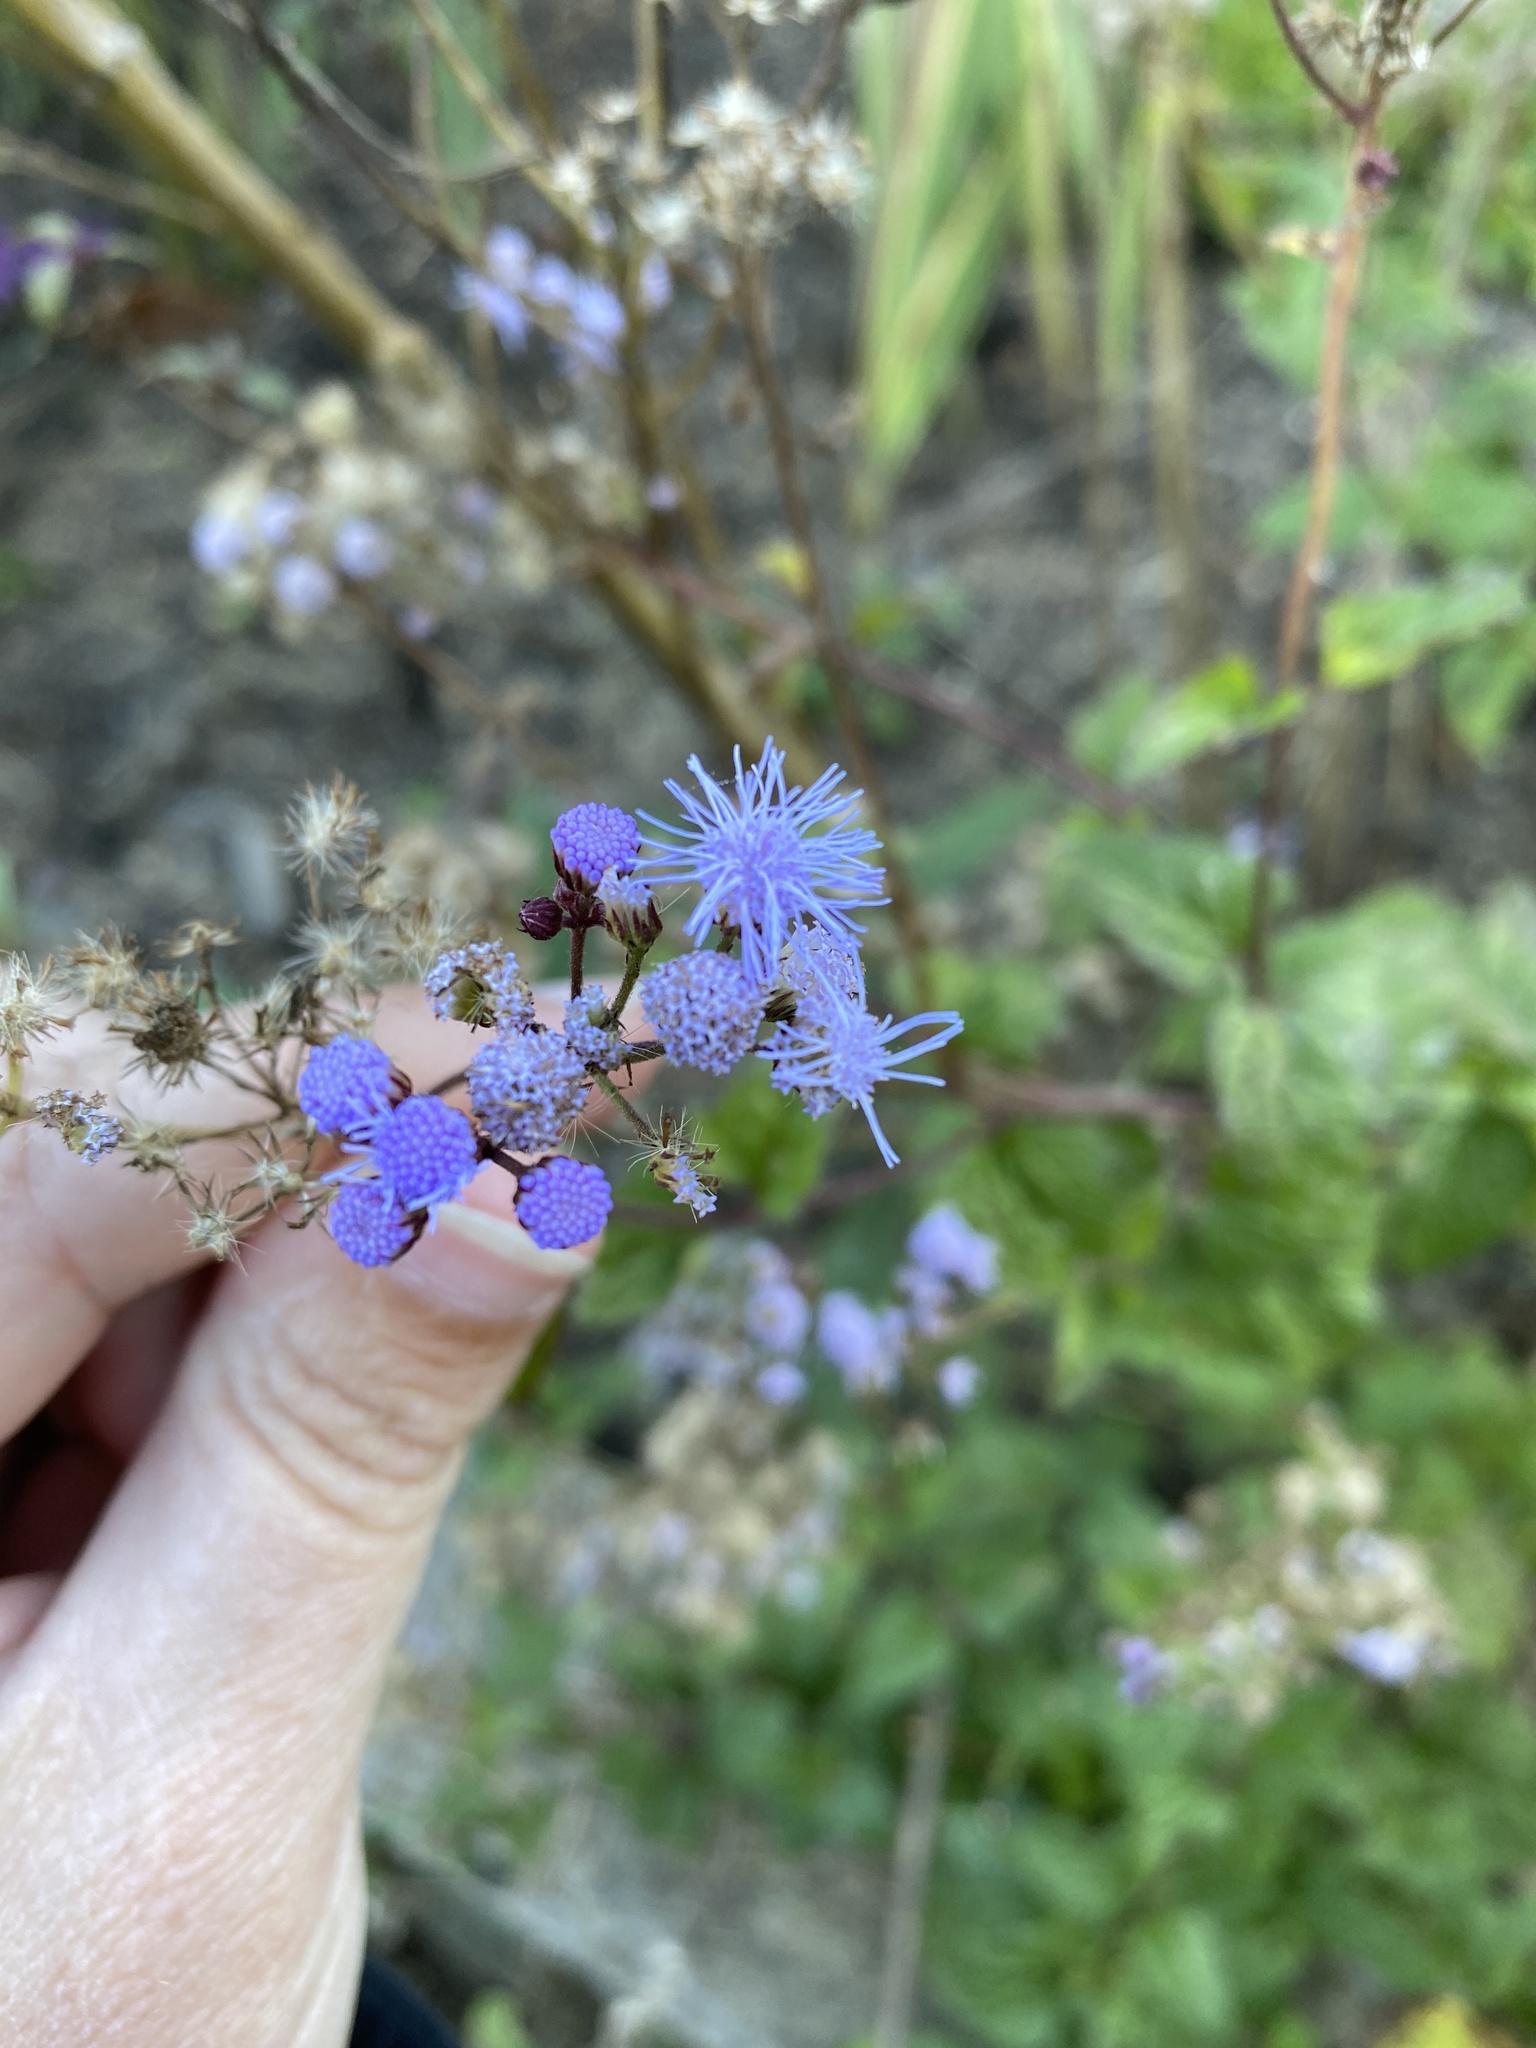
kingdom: Plantae
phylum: Tracheophyta
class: Magnoliopsida
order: Asterales
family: Asteraceae
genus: Conoclinium
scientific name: Conoclinium coelestinum
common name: Blue mistflower
